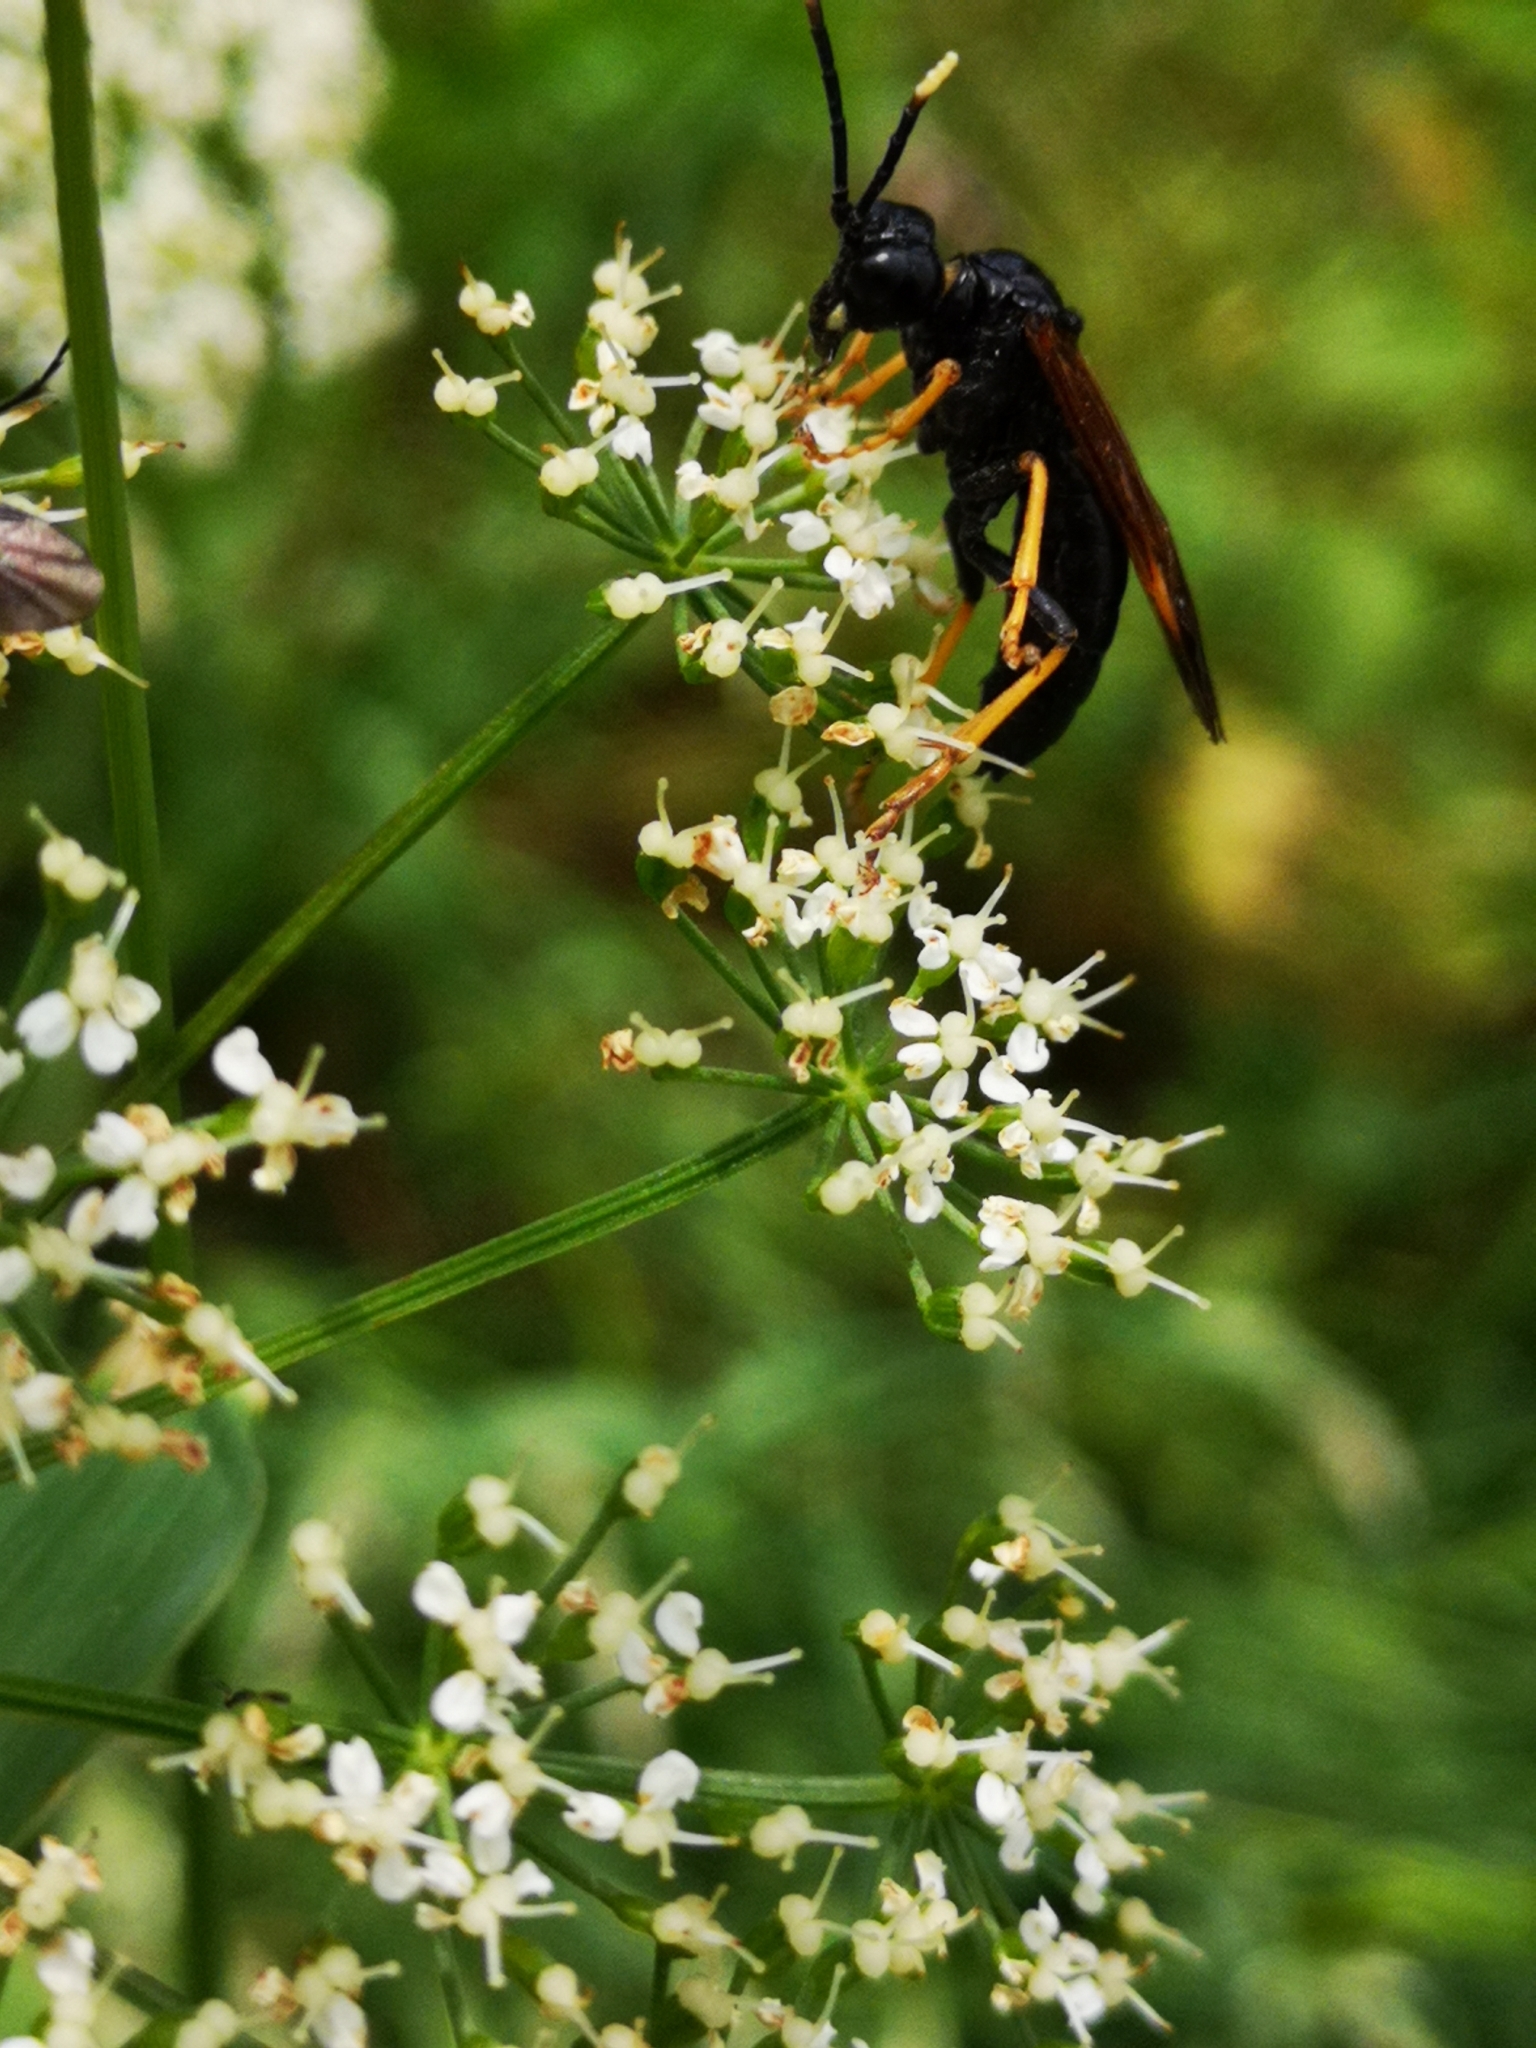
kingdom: Animalia
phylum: Arthropoda
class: Insecta
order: Hymenoptera
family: Tenthredinidae
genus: Tenthredo
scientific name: Tenthredo crassa
